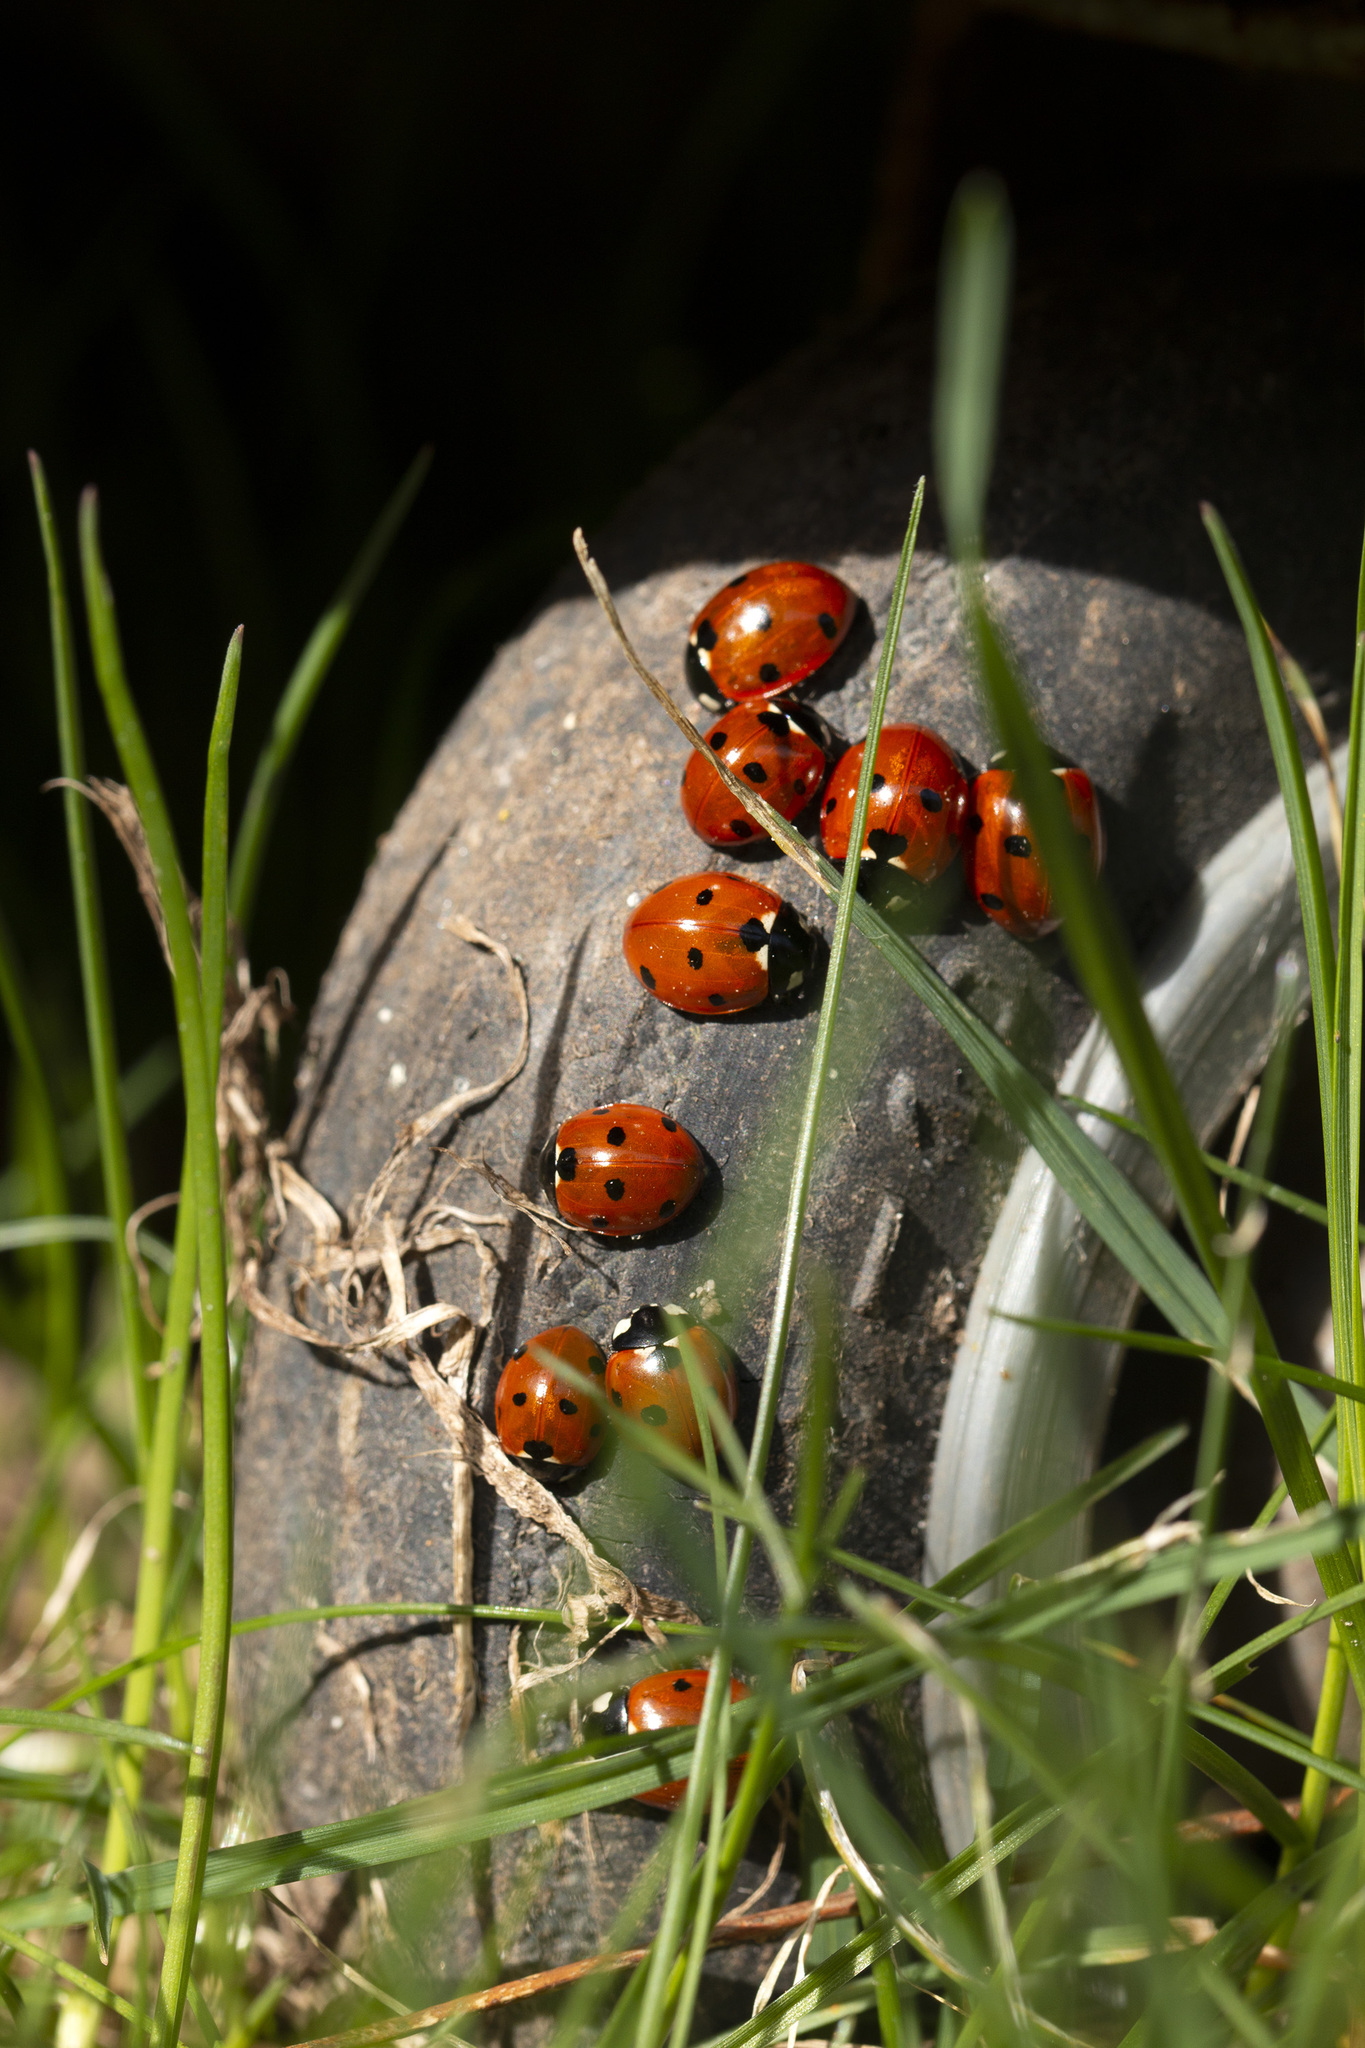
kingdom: Animalia
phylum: Arthropoda
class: Insecta
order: Coleoptera
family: Coccinellidae
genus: Coccinella
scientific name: Coccinella septempunctata
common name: Sevenspotted lady beetle
